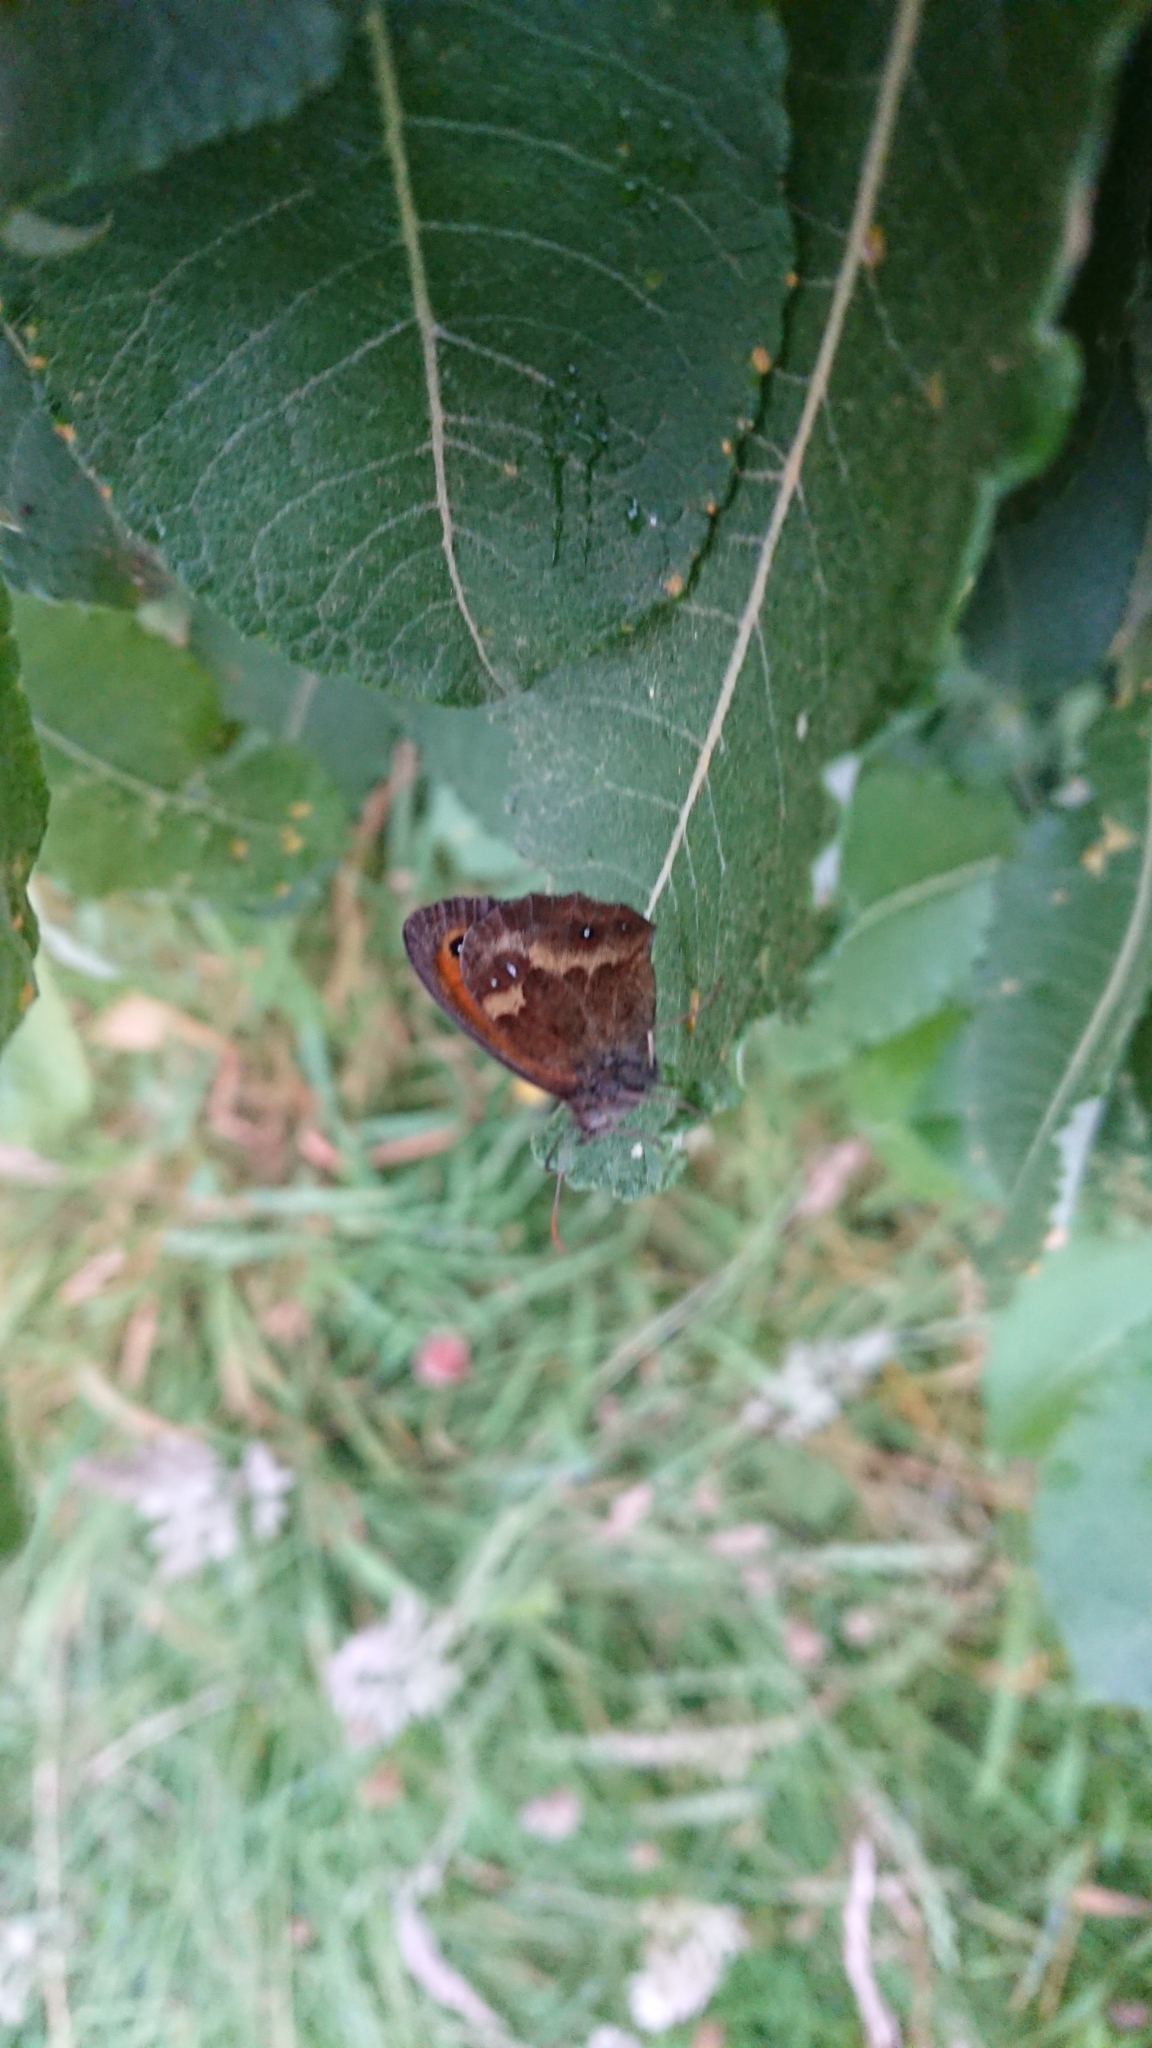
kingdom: Animalia
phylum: Arthropoda
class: Insecta
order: Lepidoptera
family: Nymphalidae
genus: Pyronia
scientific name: Pyronia tithonus
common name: Gatekeeper
